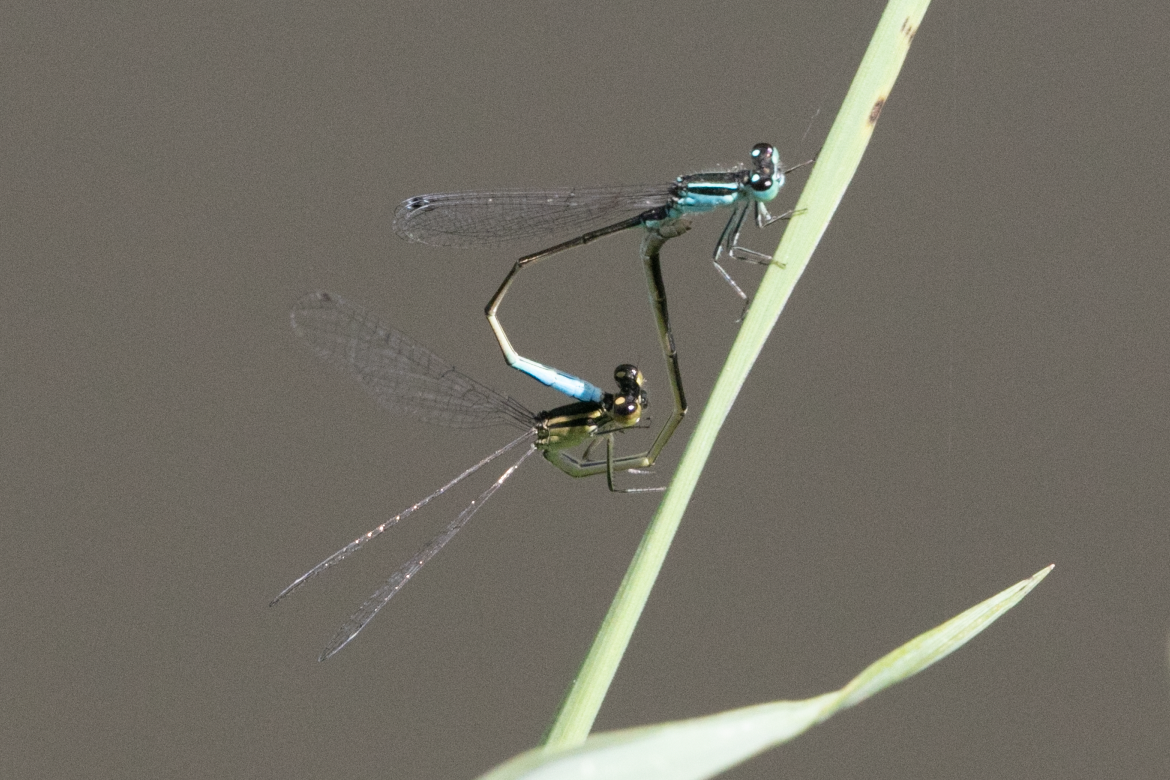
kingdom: Animalia
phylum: Arthropoda
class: Insecta
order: Odonata
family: Coenagrionidae
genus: Ischnura
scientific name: Ischnura elegans
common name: Blue-tailed damselfly
